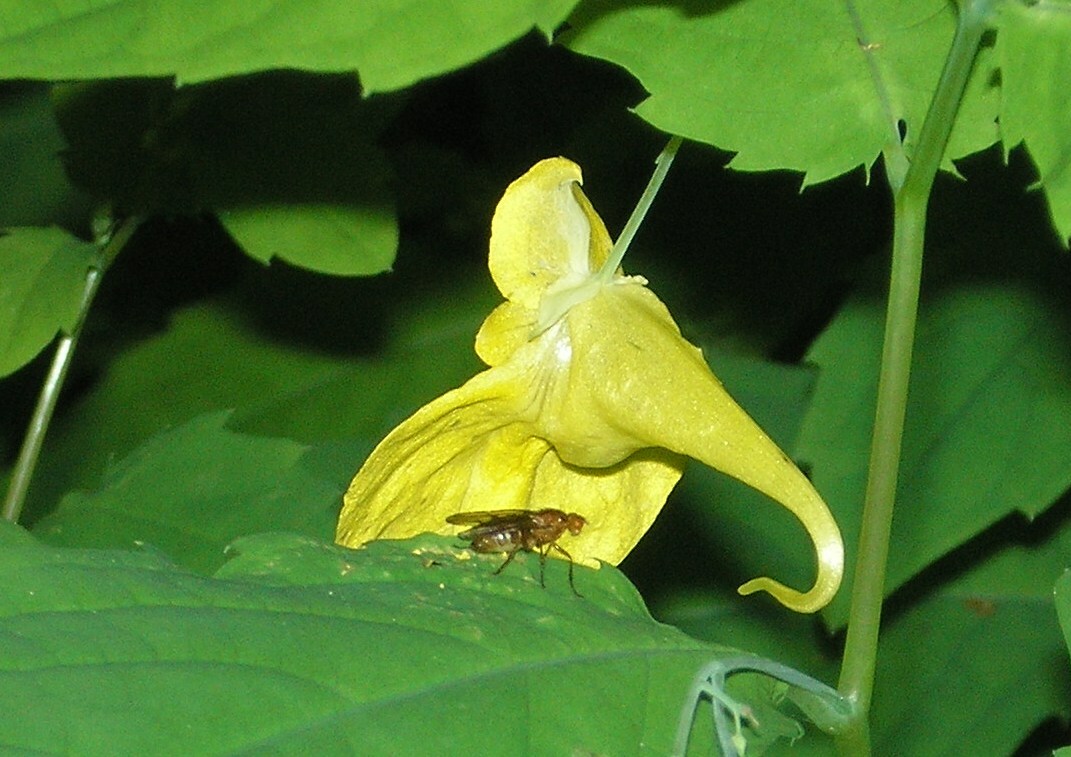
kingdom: Plantae
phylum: Tracheophyta
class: Magnoliopsida
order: Ericales
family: Balsaminaceae
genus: Impatiens
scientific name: Impatiens noli-tangere
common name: Touch-me-not balsam
